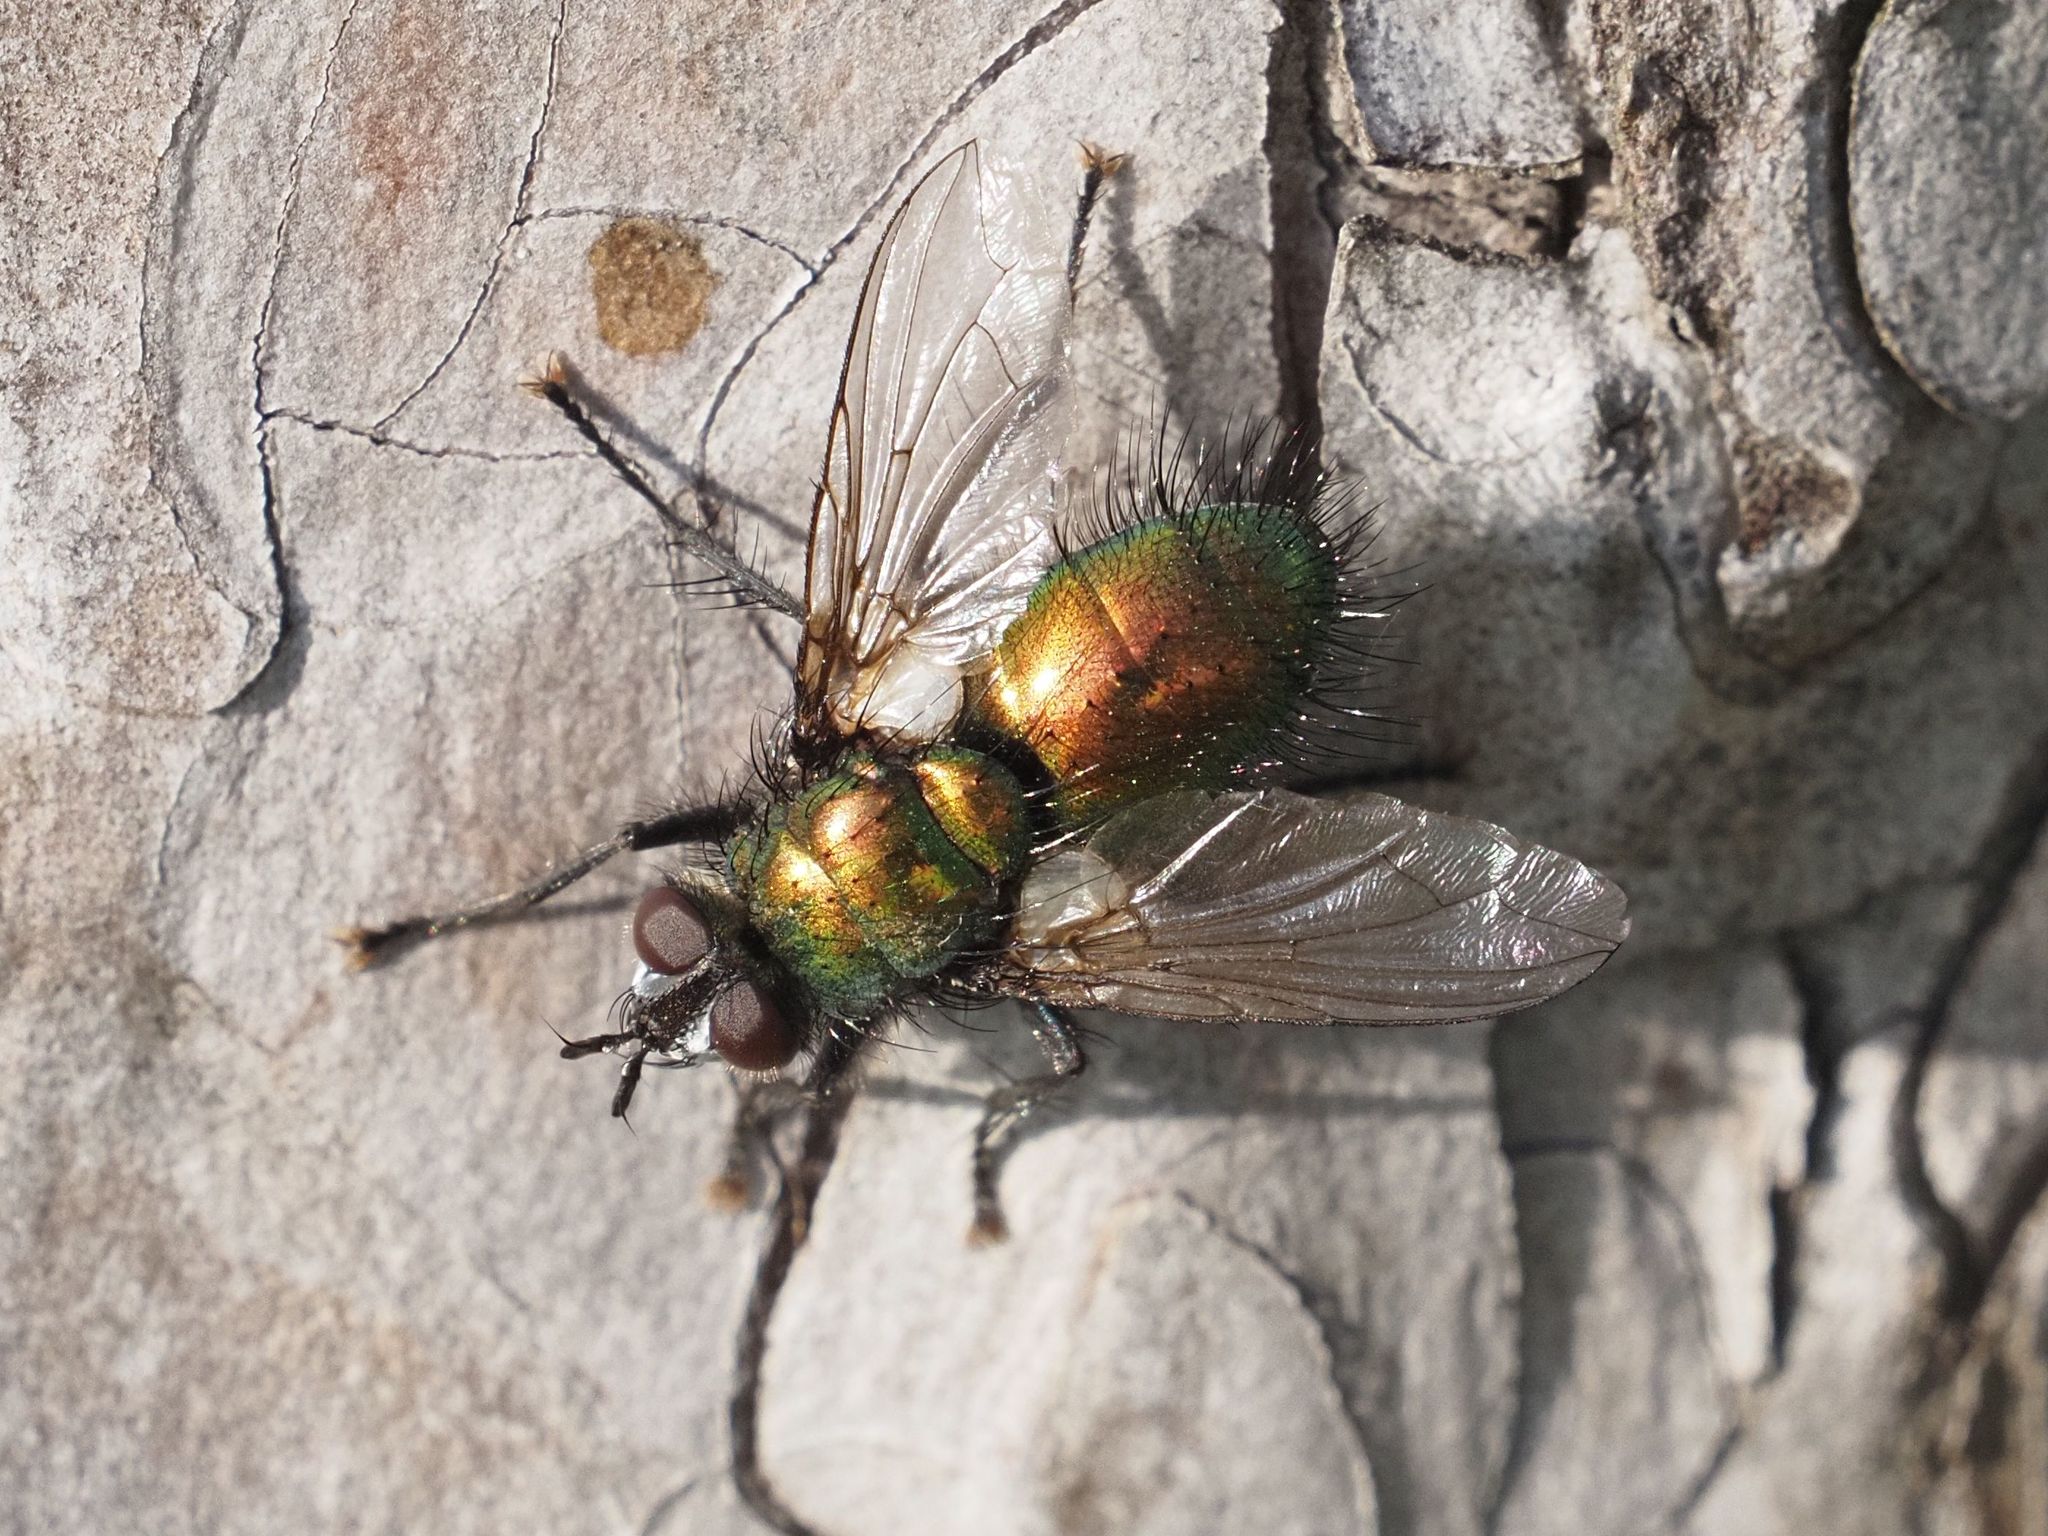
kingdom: Animalia
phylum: Arthropoda
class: Insecta
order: Diptera
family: Tachinidae
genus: Gymnocheta
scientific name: Gymnocheta viridis
